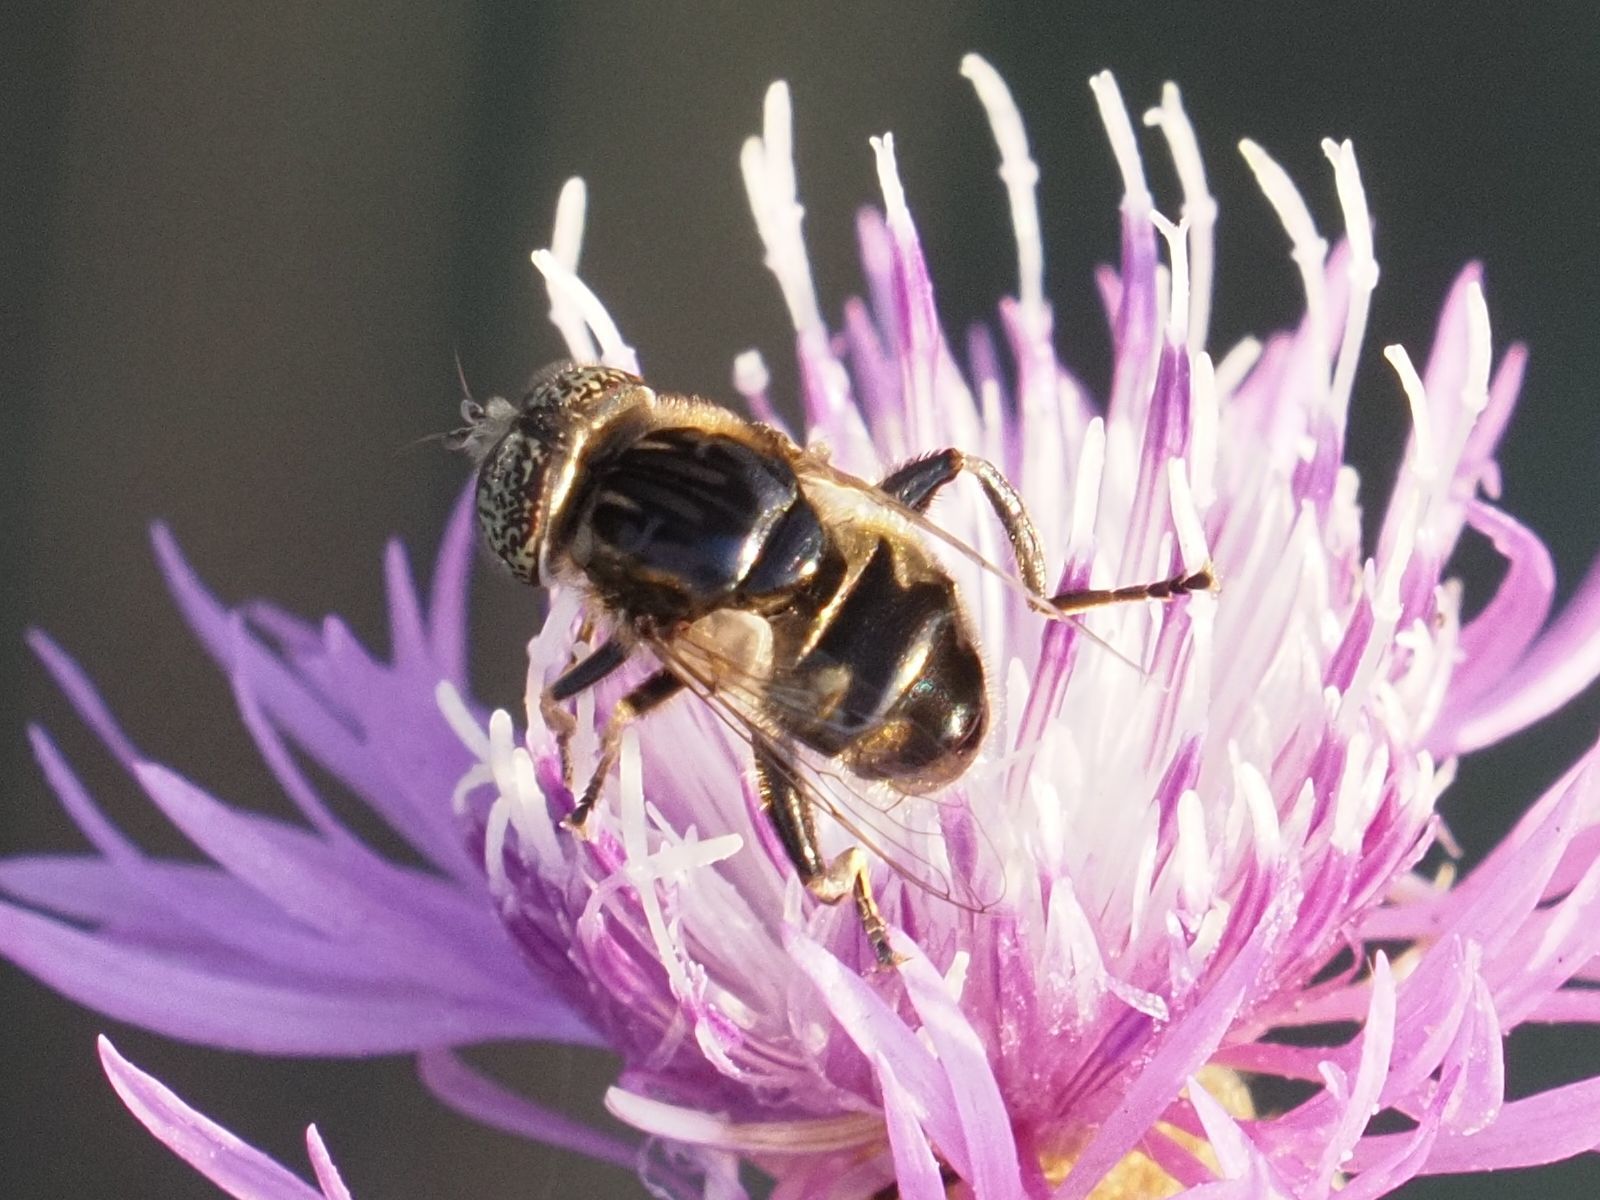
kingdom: Animalia
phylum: Arthropoda
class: Insecta
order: Diptera
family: Syrphidae
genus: Eristalinus
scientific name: Eristalinus sepulchralis
